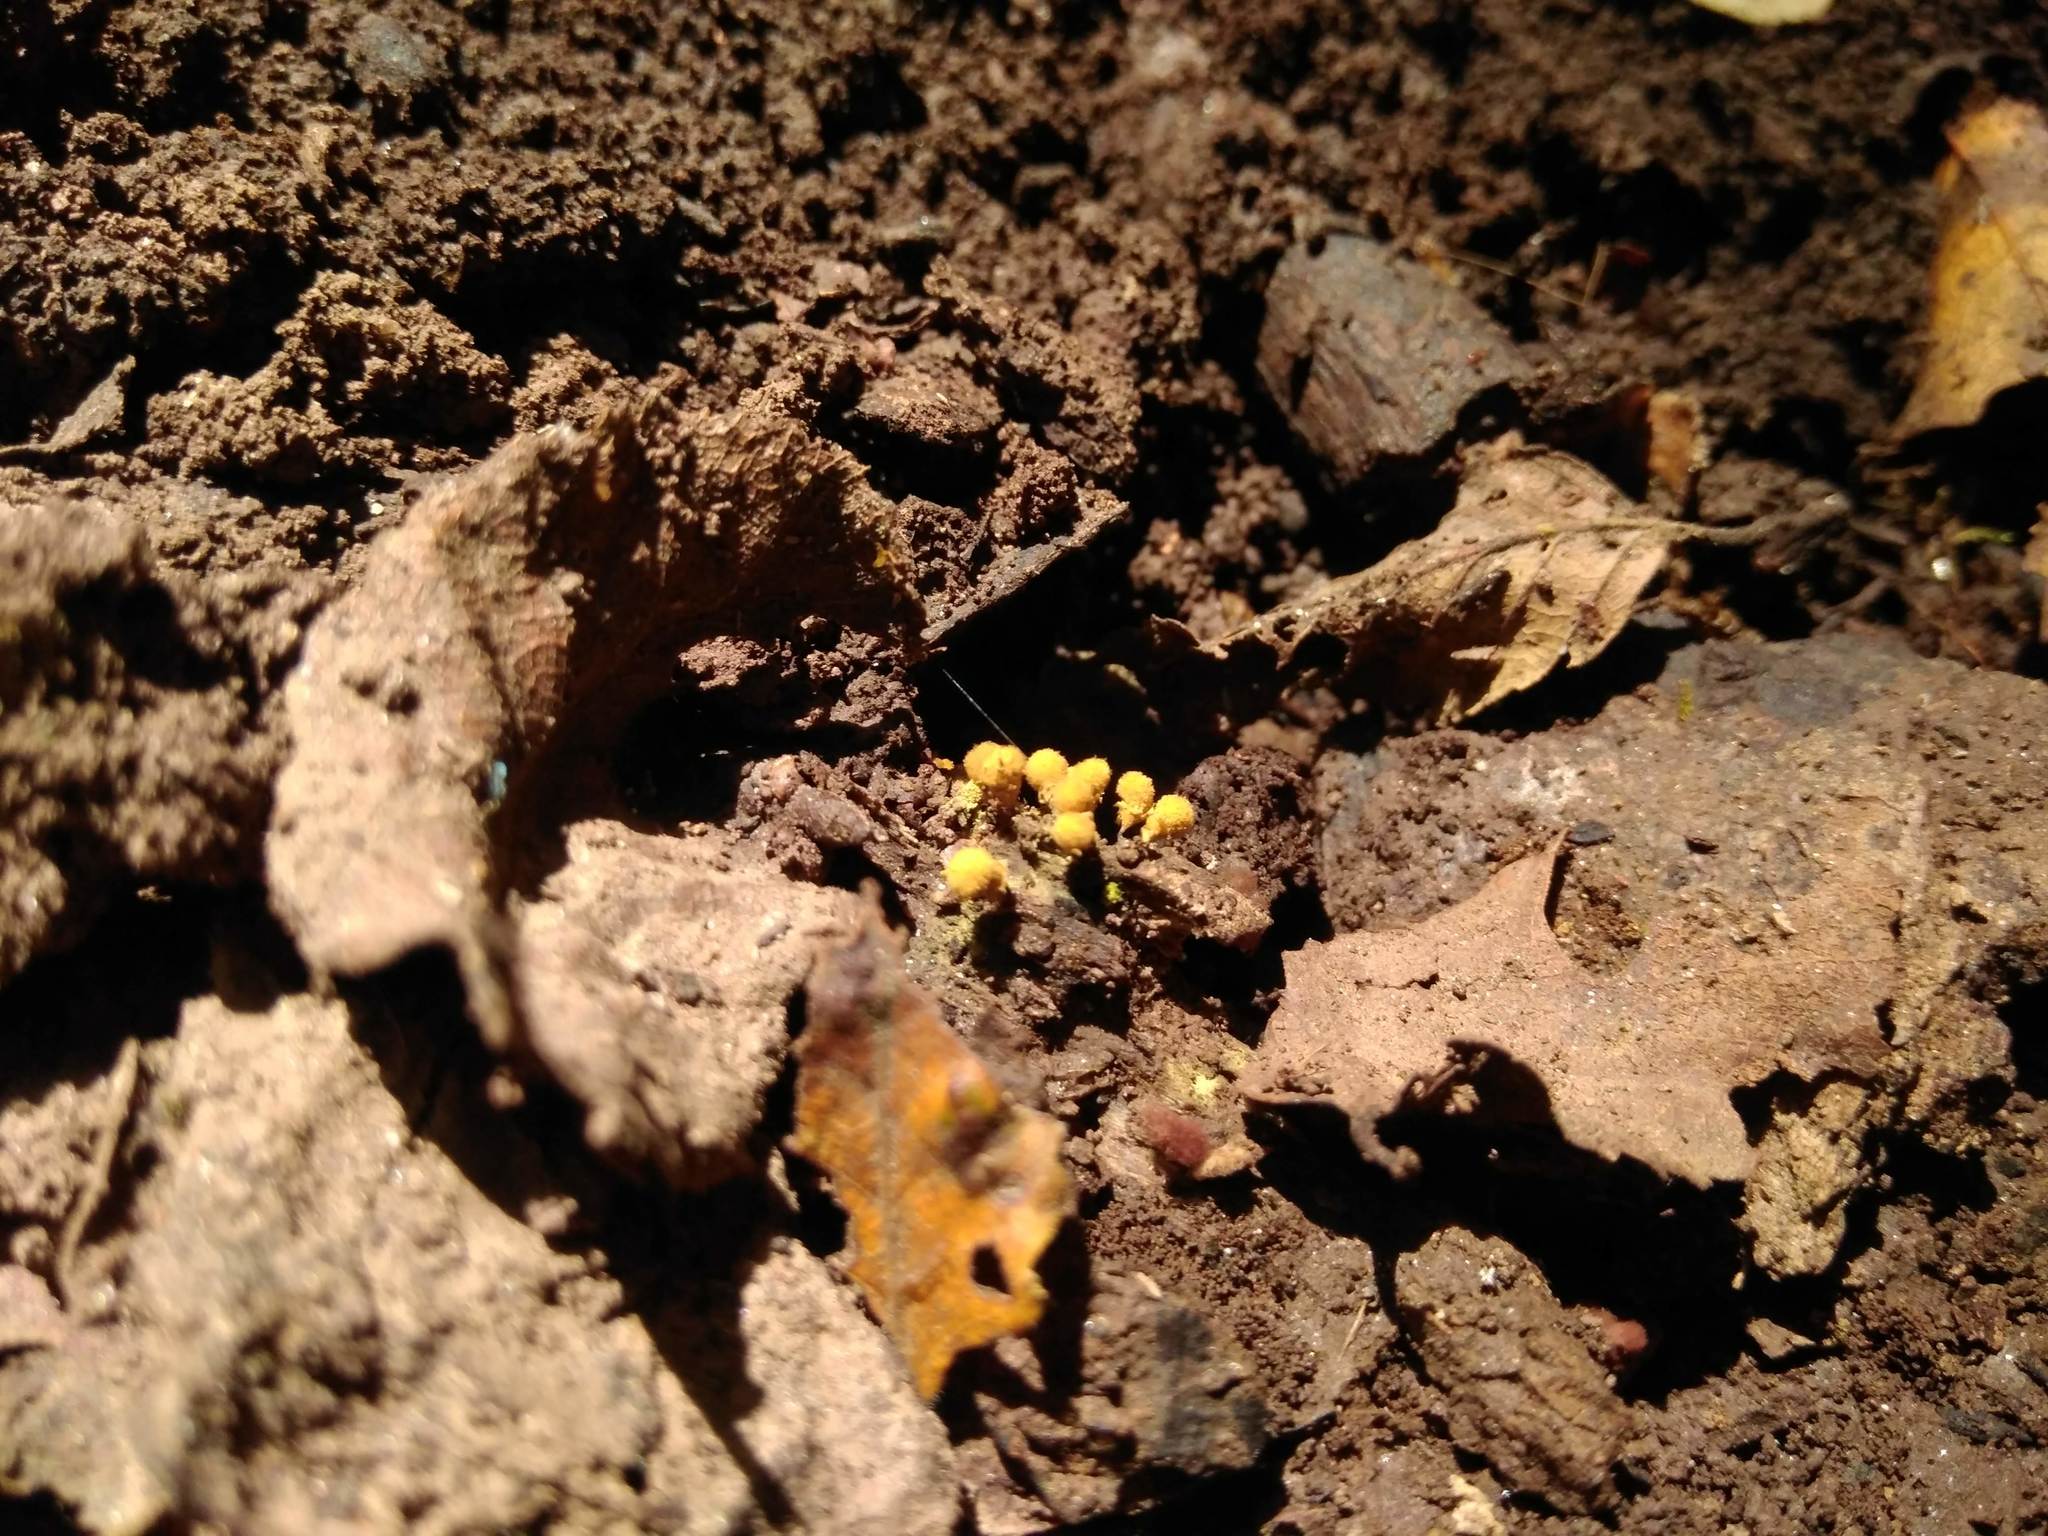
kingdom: Protozoa
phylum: Mycetozoa
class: Myxomycetes
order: Trichiales
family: Arcyriaceae
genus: Hemitrichia
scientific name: Hemitrichia calyculata
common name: Push pin slime mold
